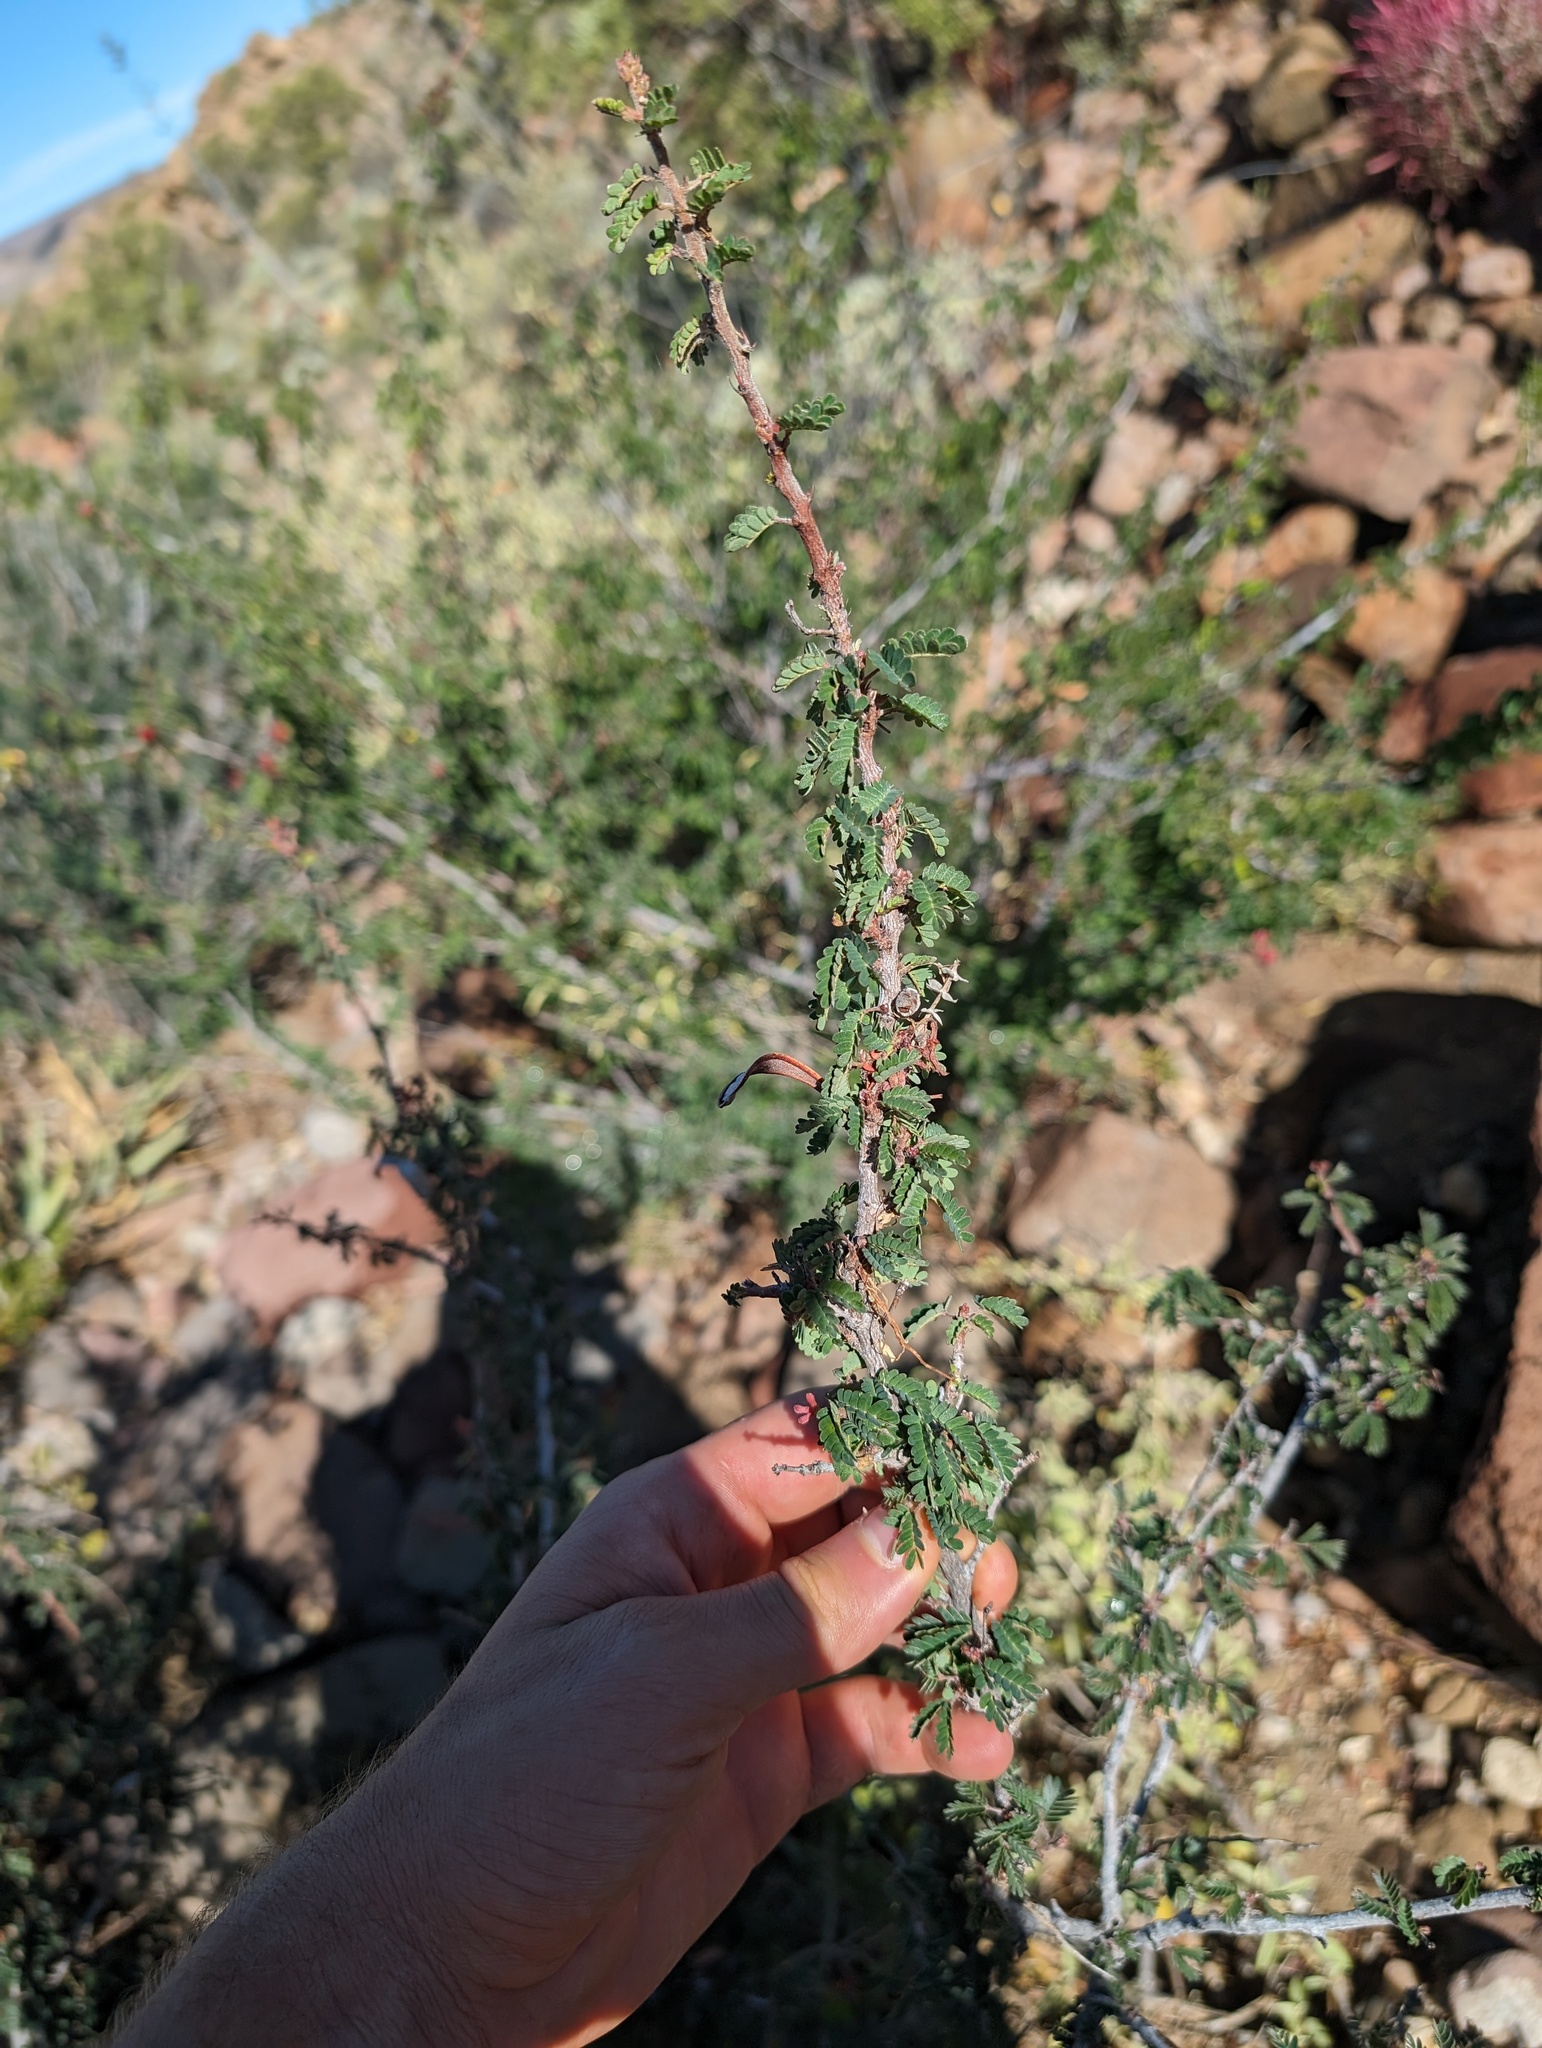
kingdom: Plantae
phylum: Tracheophyta
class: Magnoliopsida
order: Fabales
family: Fabaceae
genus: Calliandra
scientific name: Calliandra californica
